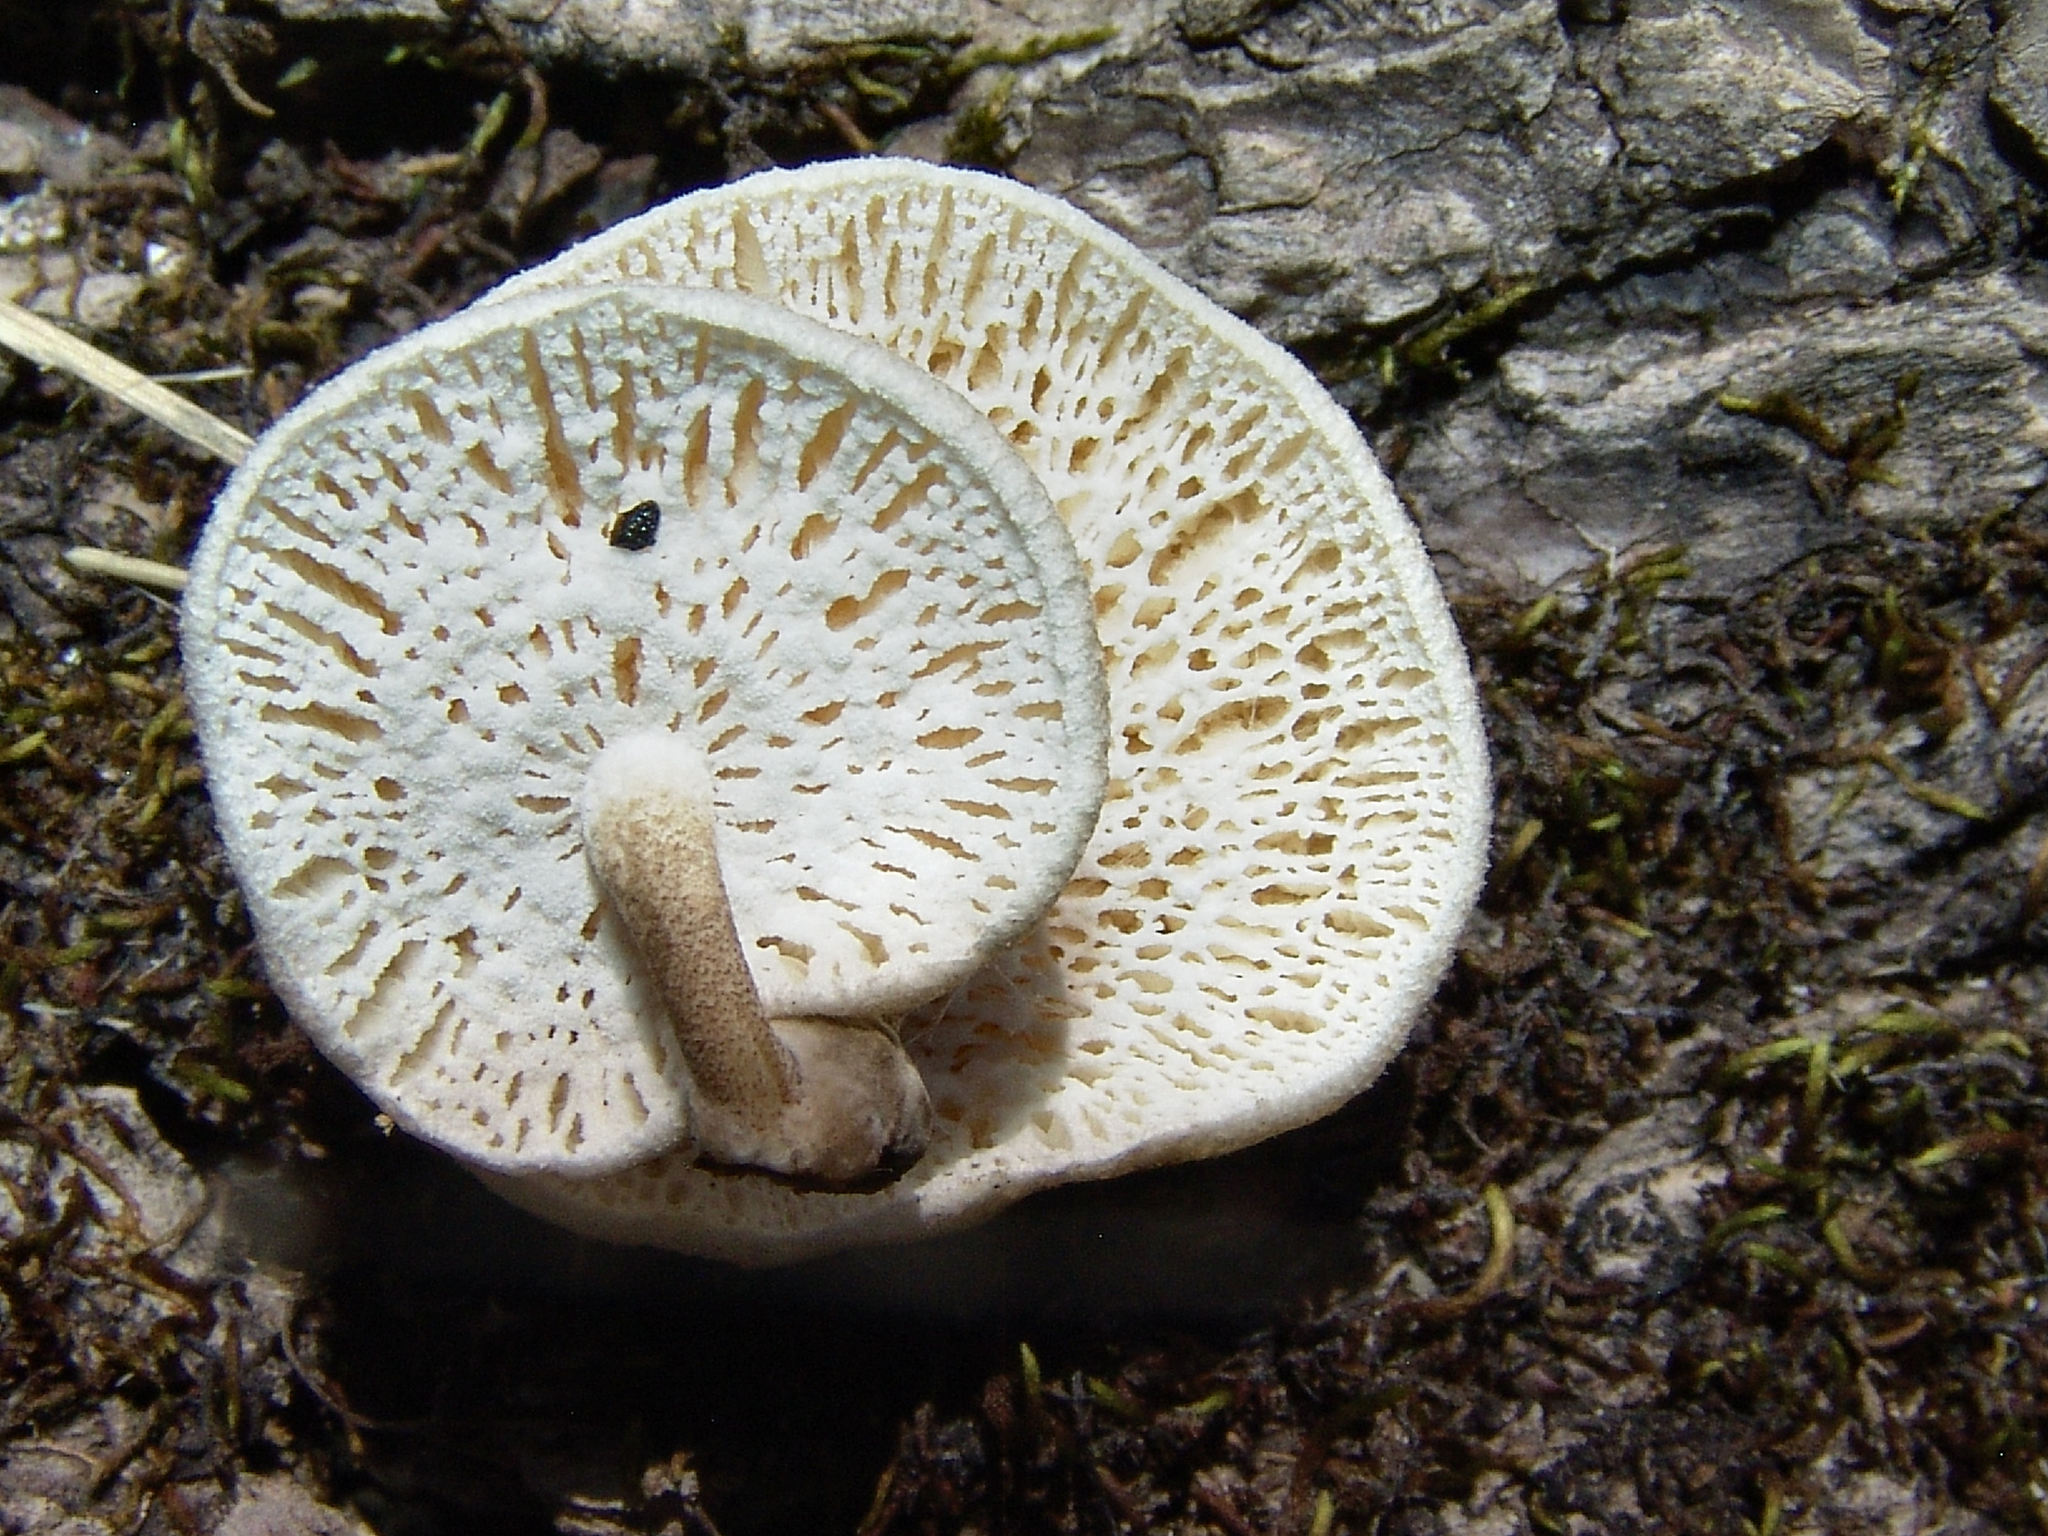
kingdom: Fungi
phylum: Basidiomycota
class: Agaricomycetes
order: Polyporales
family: Polyporaceae
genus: Lentinus
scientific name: Lentinus tigrinus
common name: Tiger sawgill
